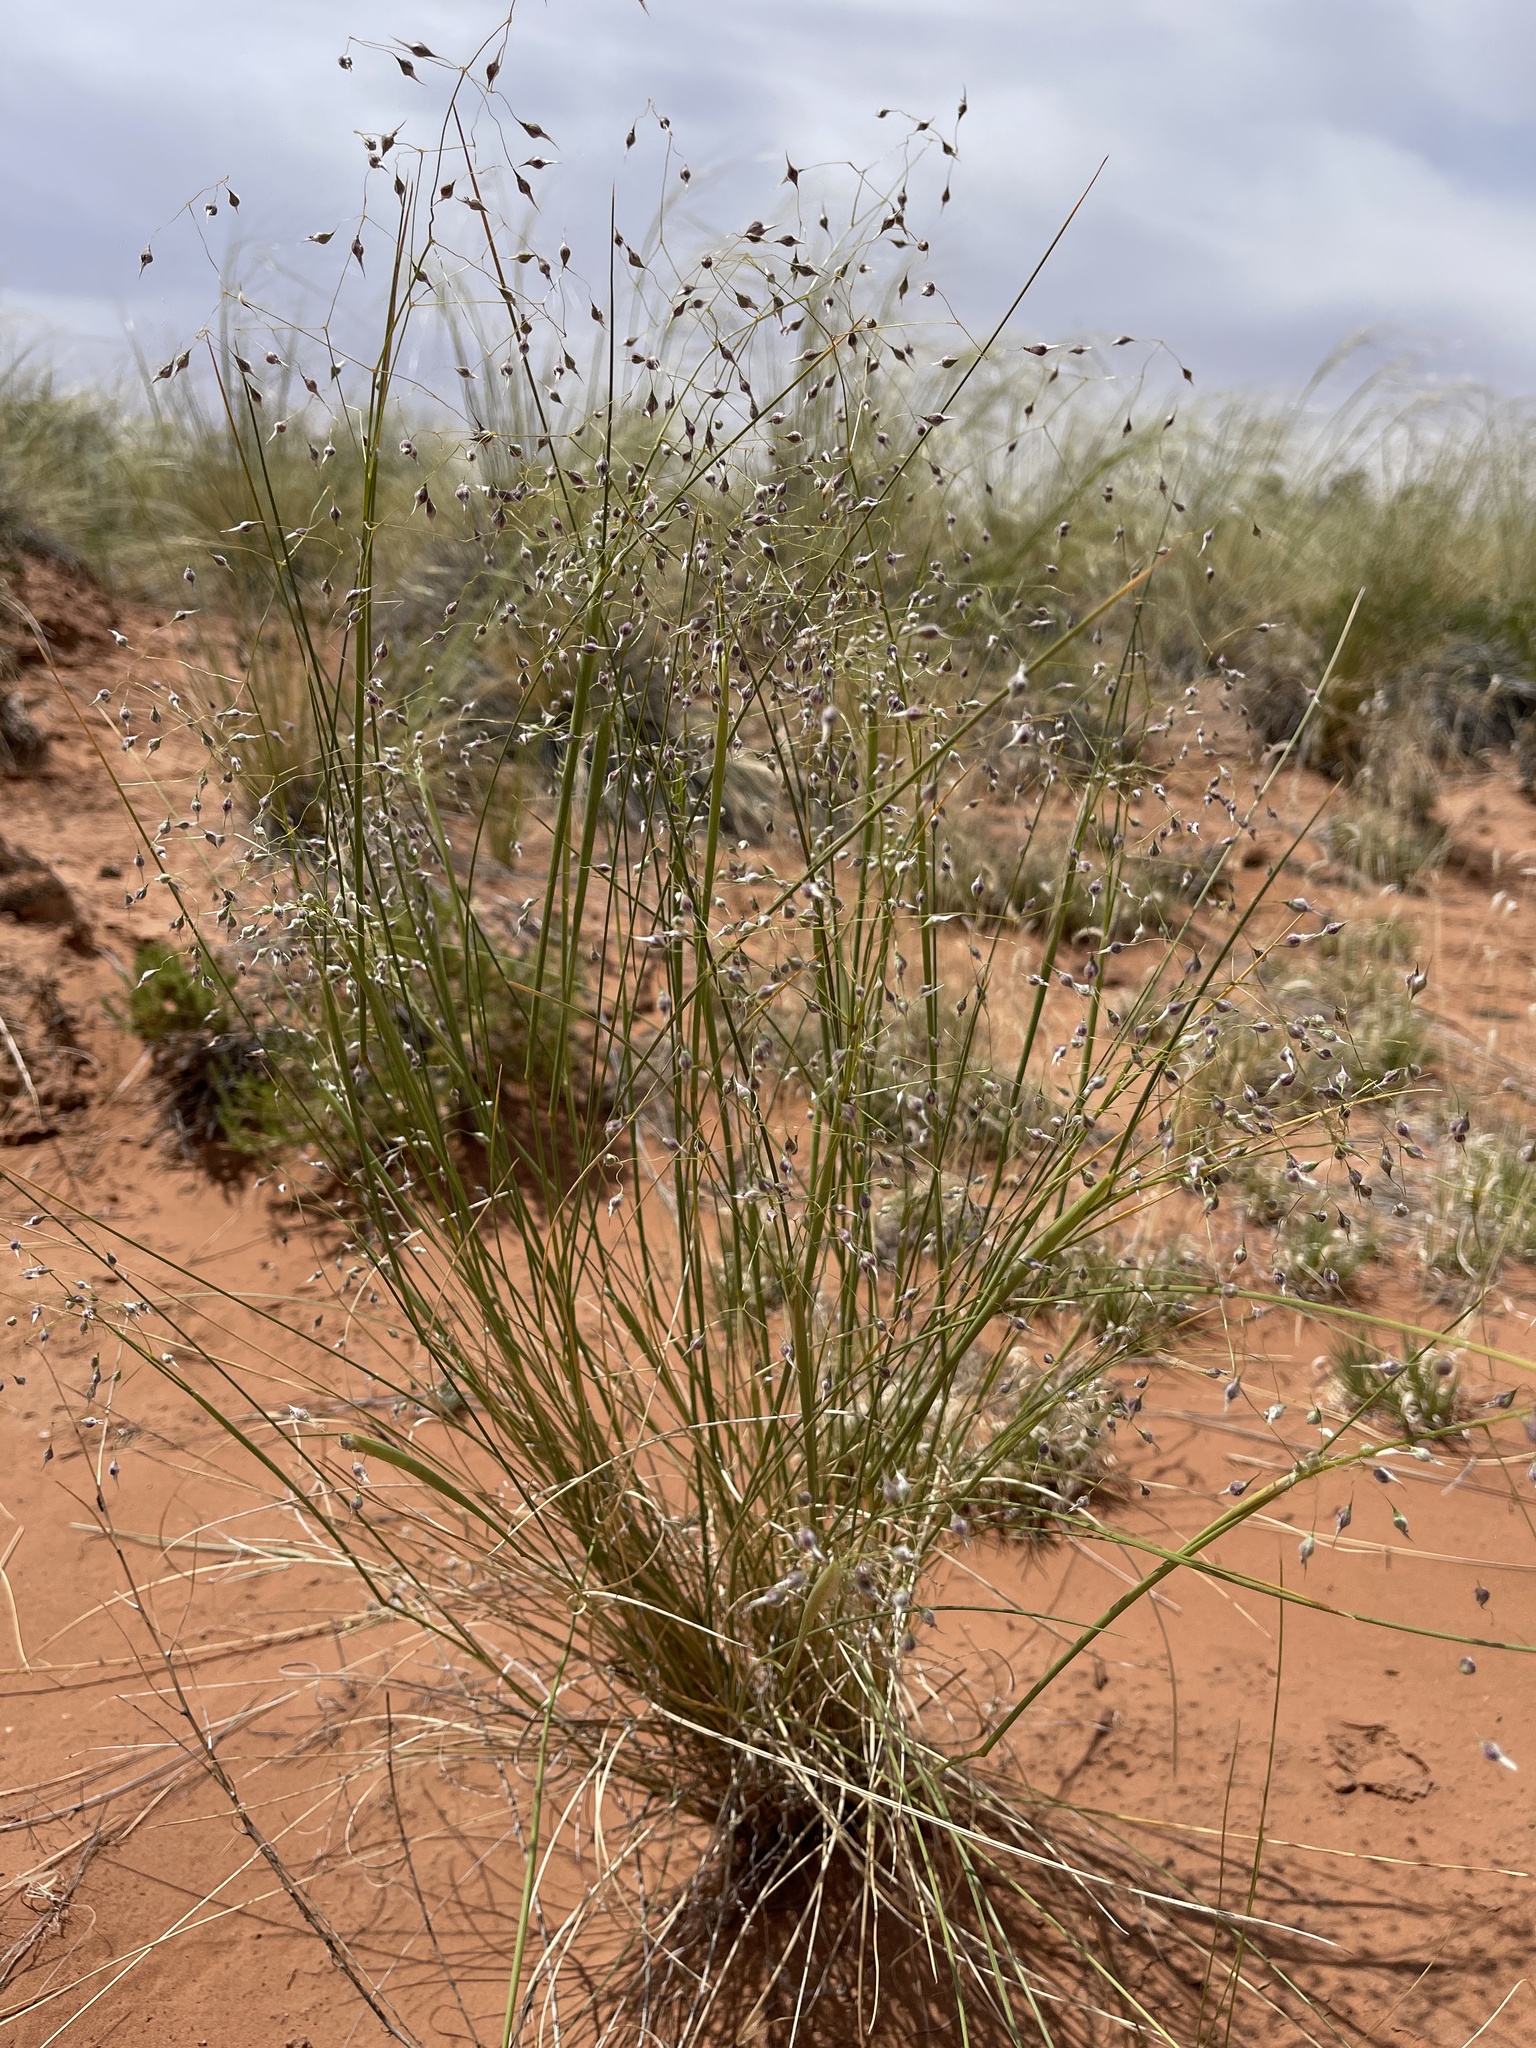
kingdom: Plantae
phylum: Tracheophyta
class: Liliopsida
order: Poales
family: Poaceae
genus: Eriocoma
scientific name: Eriocoma hymenoides
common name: Indian mountain ricegrass
